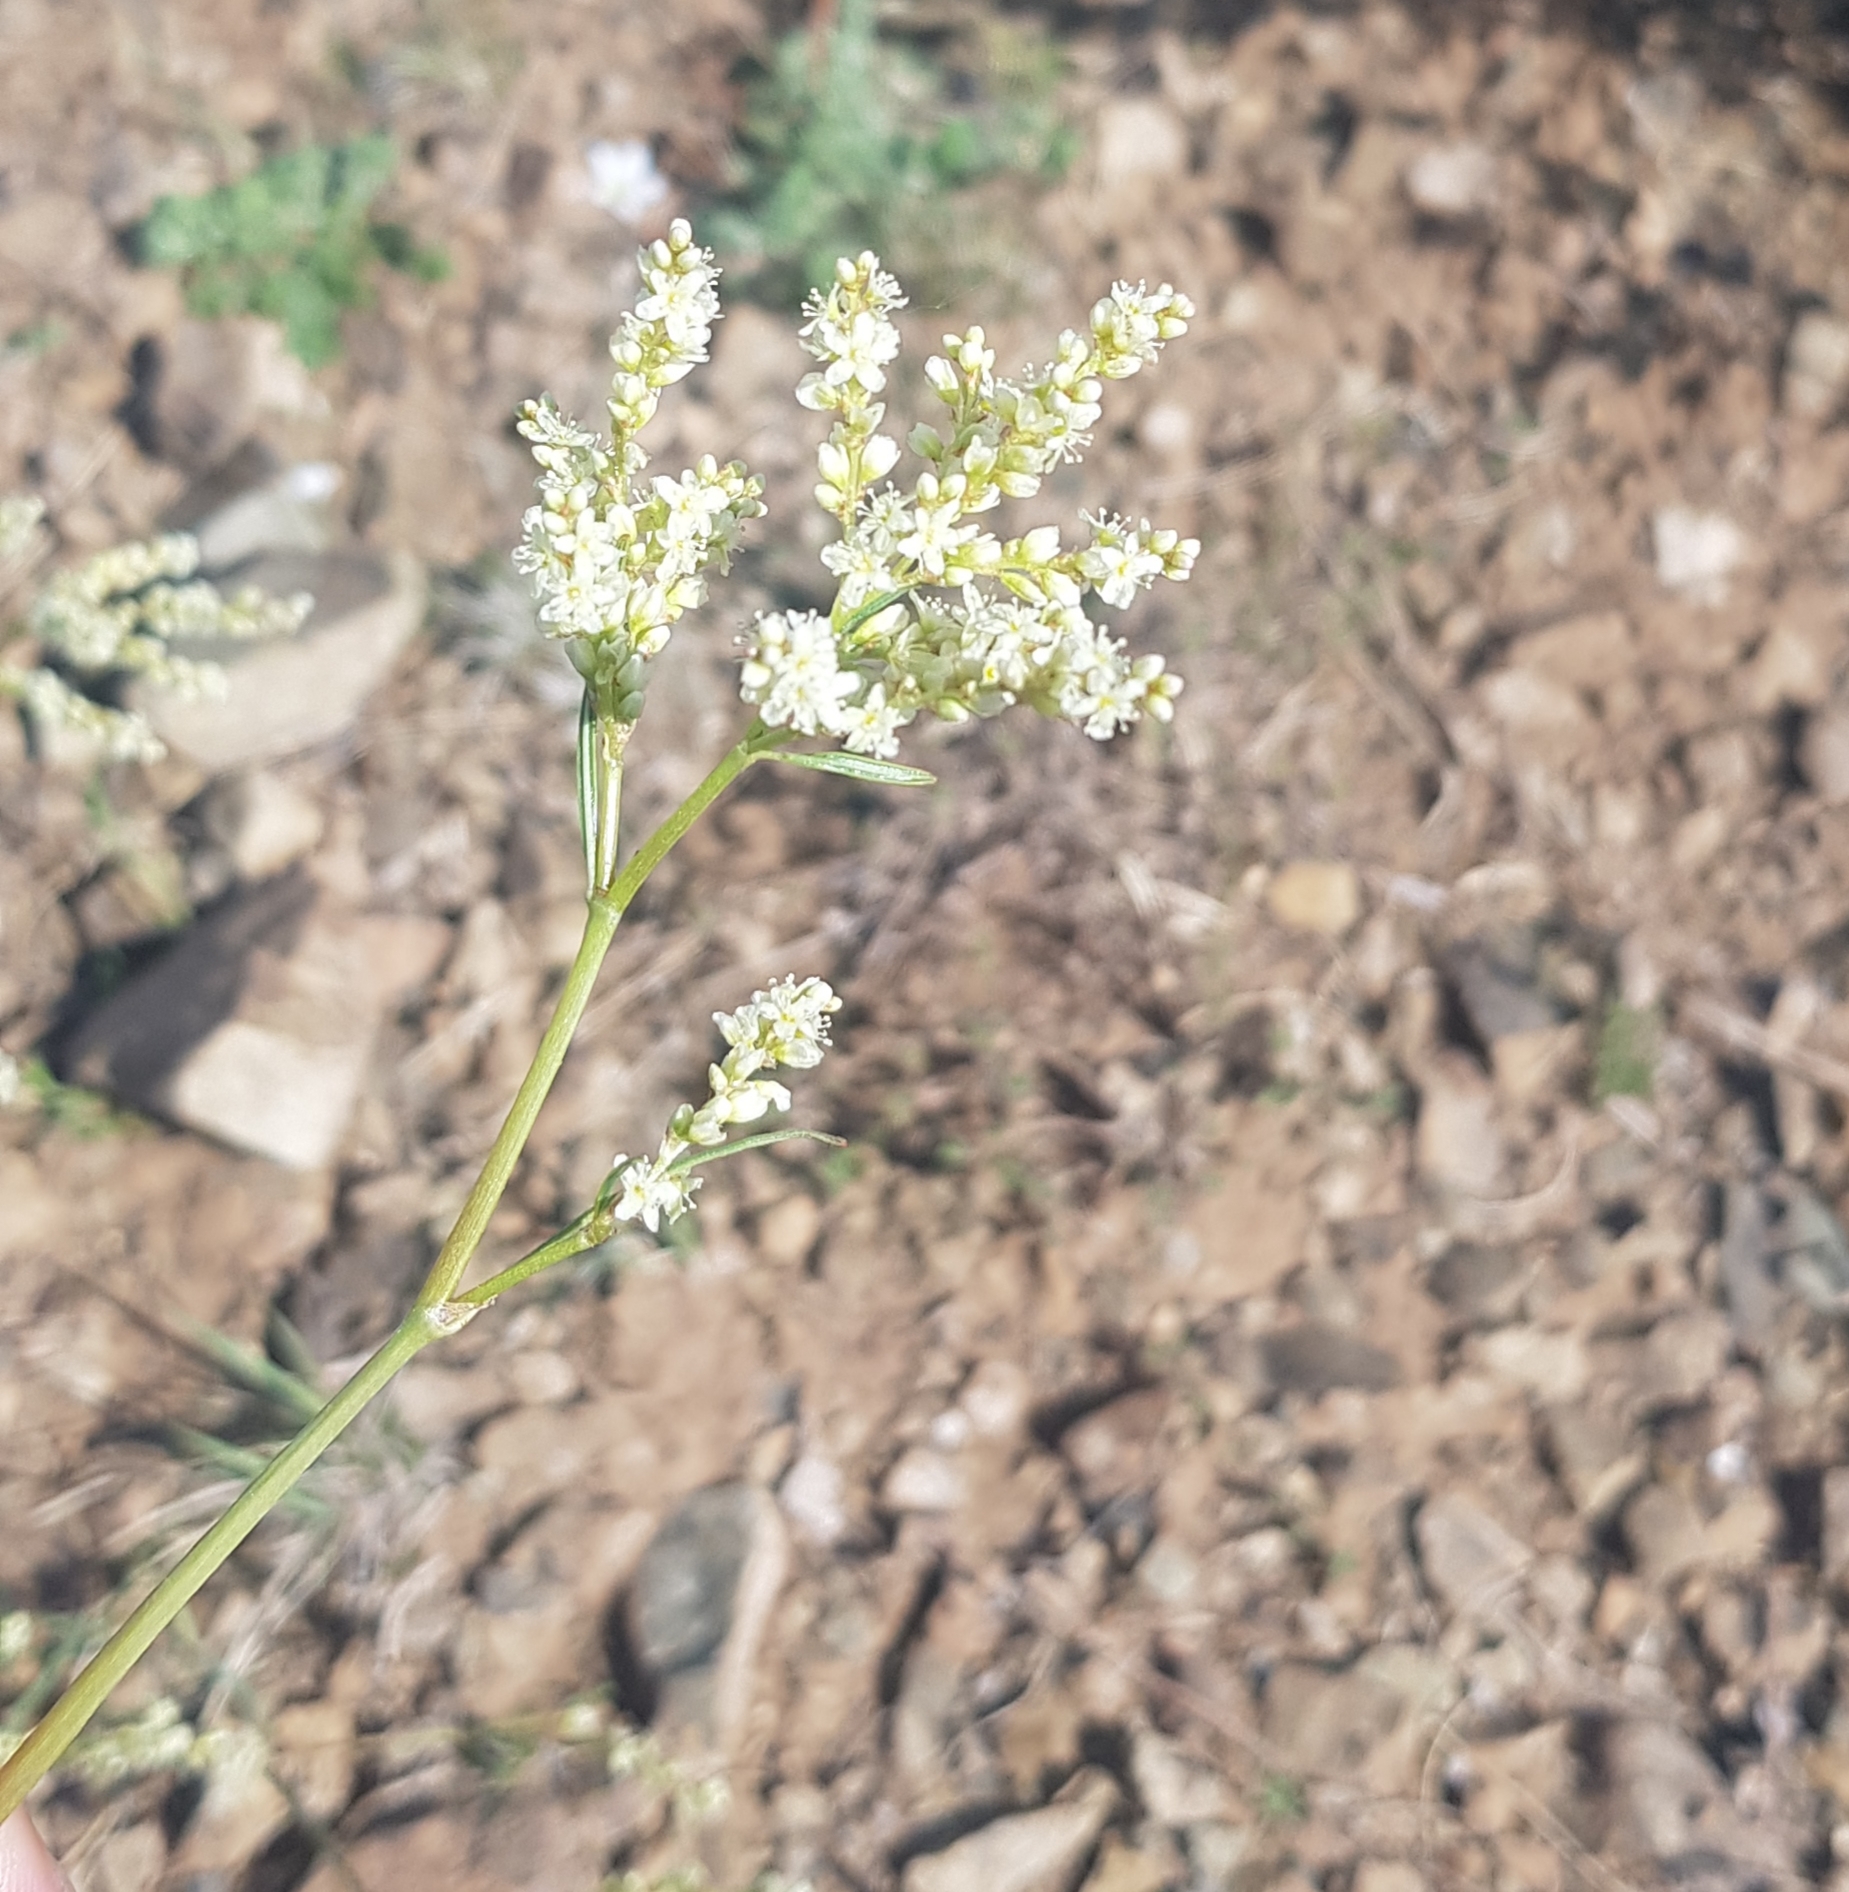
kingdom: Plantae
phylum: Tracheophyta
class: Magnoliopsida
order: Caryophyllales
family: Polygonaceae
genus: Koenigia
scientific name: Koenigia divaricata
